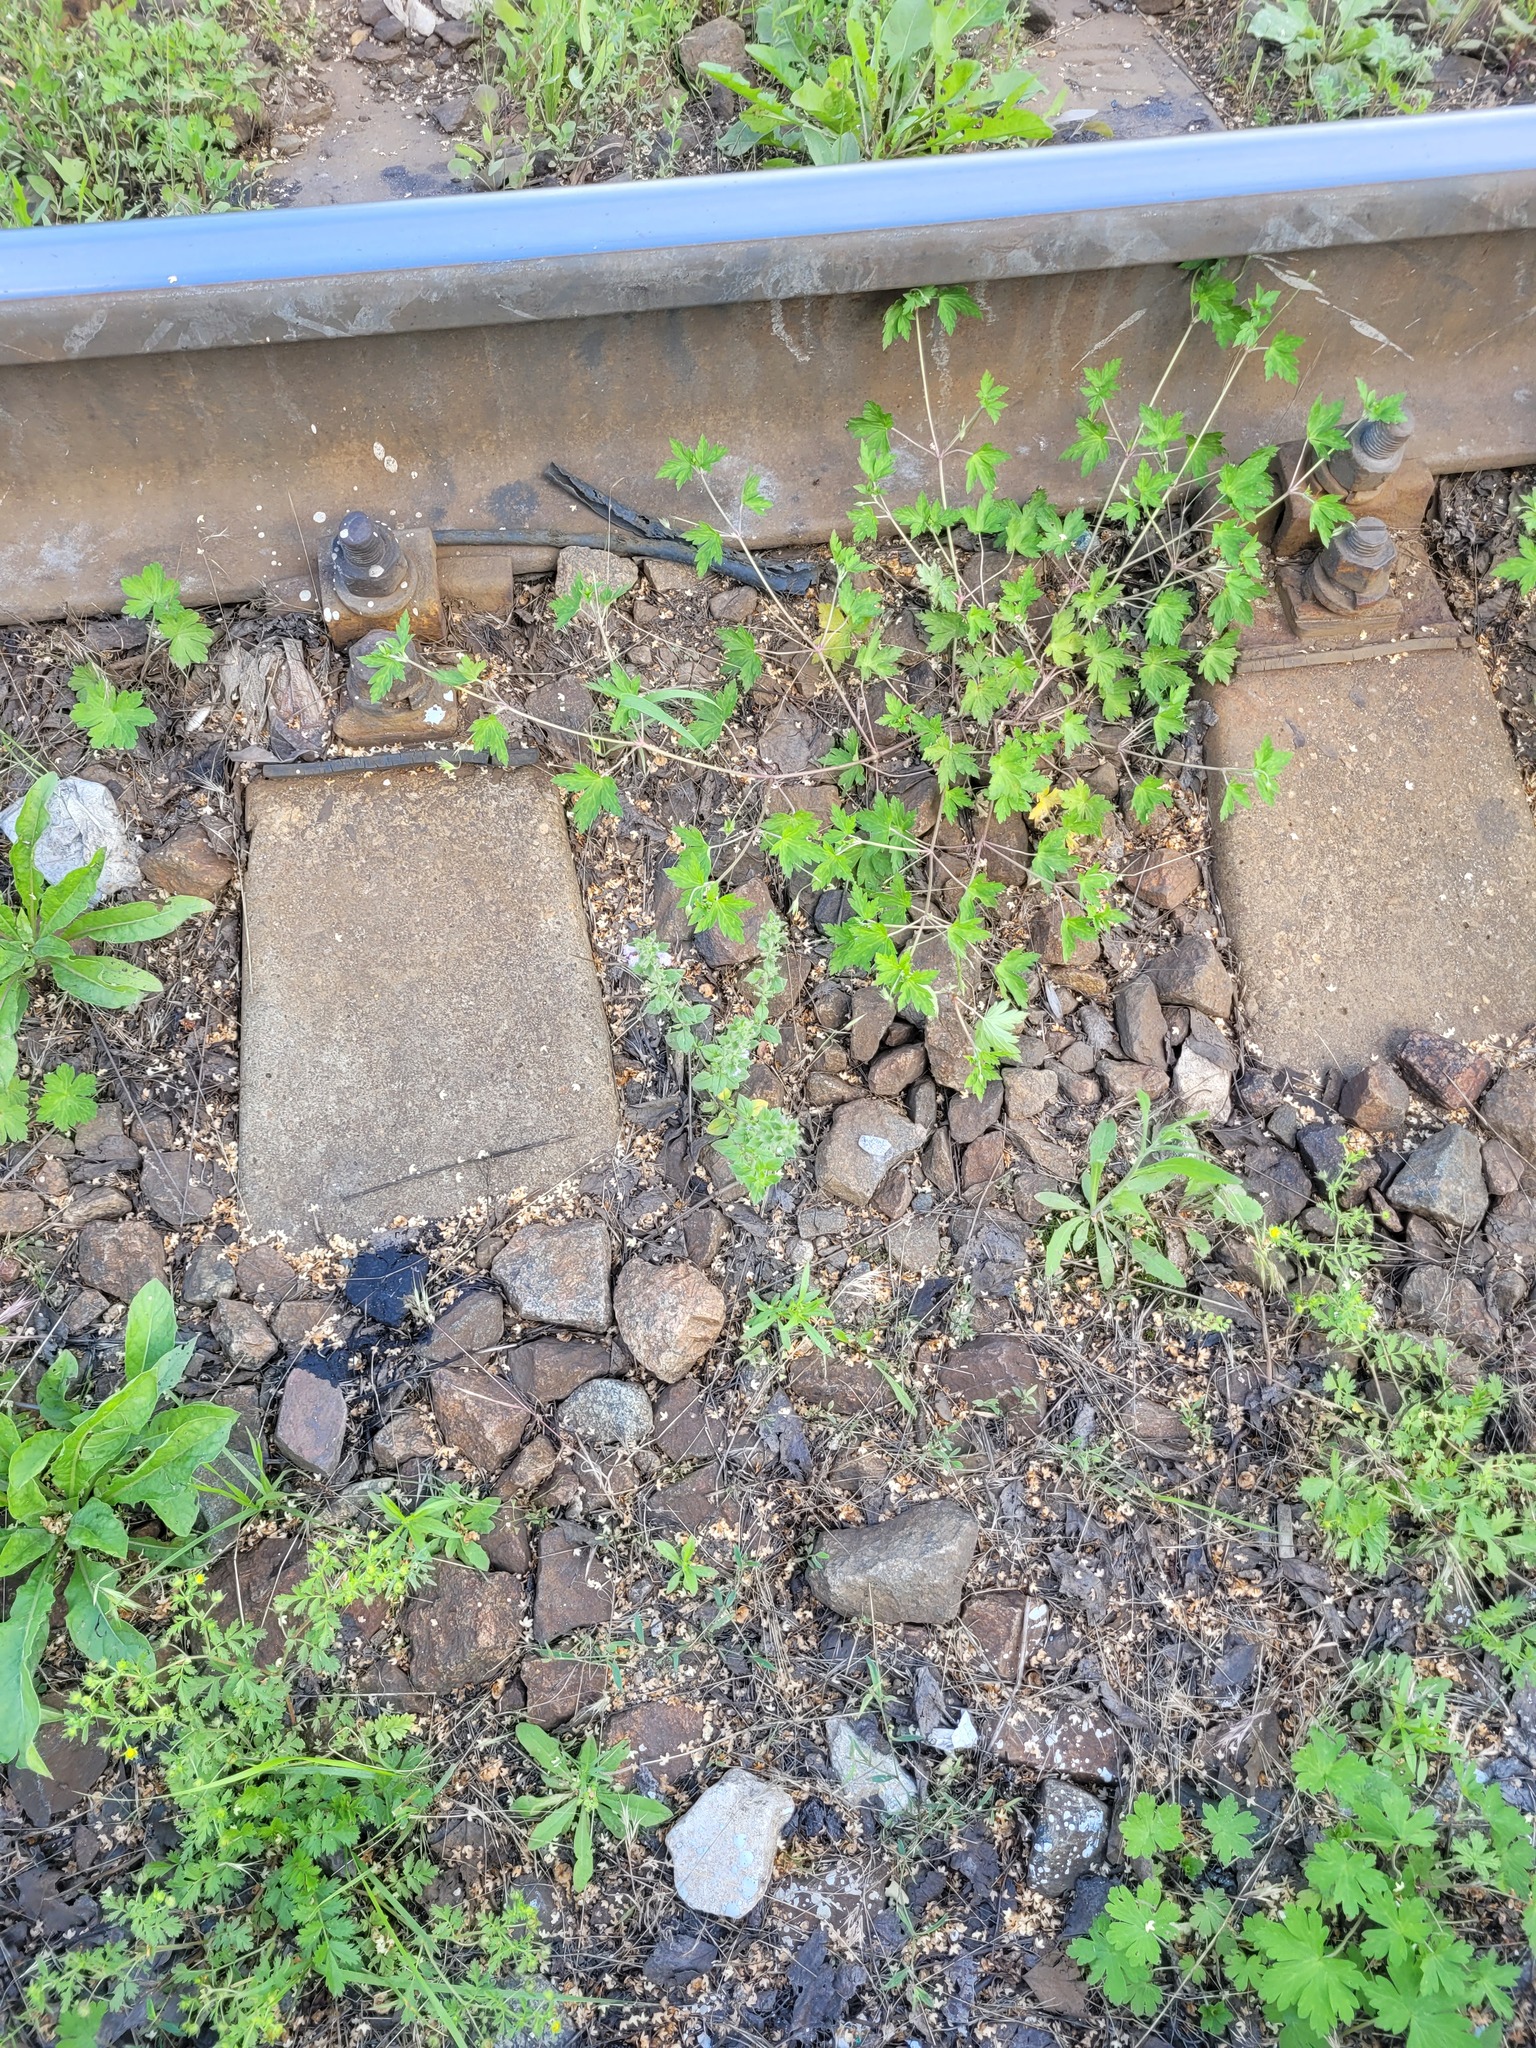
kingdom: Plantae
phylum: Tracheophyta
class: Magnoliopsida
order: Lamiales
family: Lamiaceae
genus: Clinopodium
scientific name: Clinopodium acinos
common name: Basil thyme
